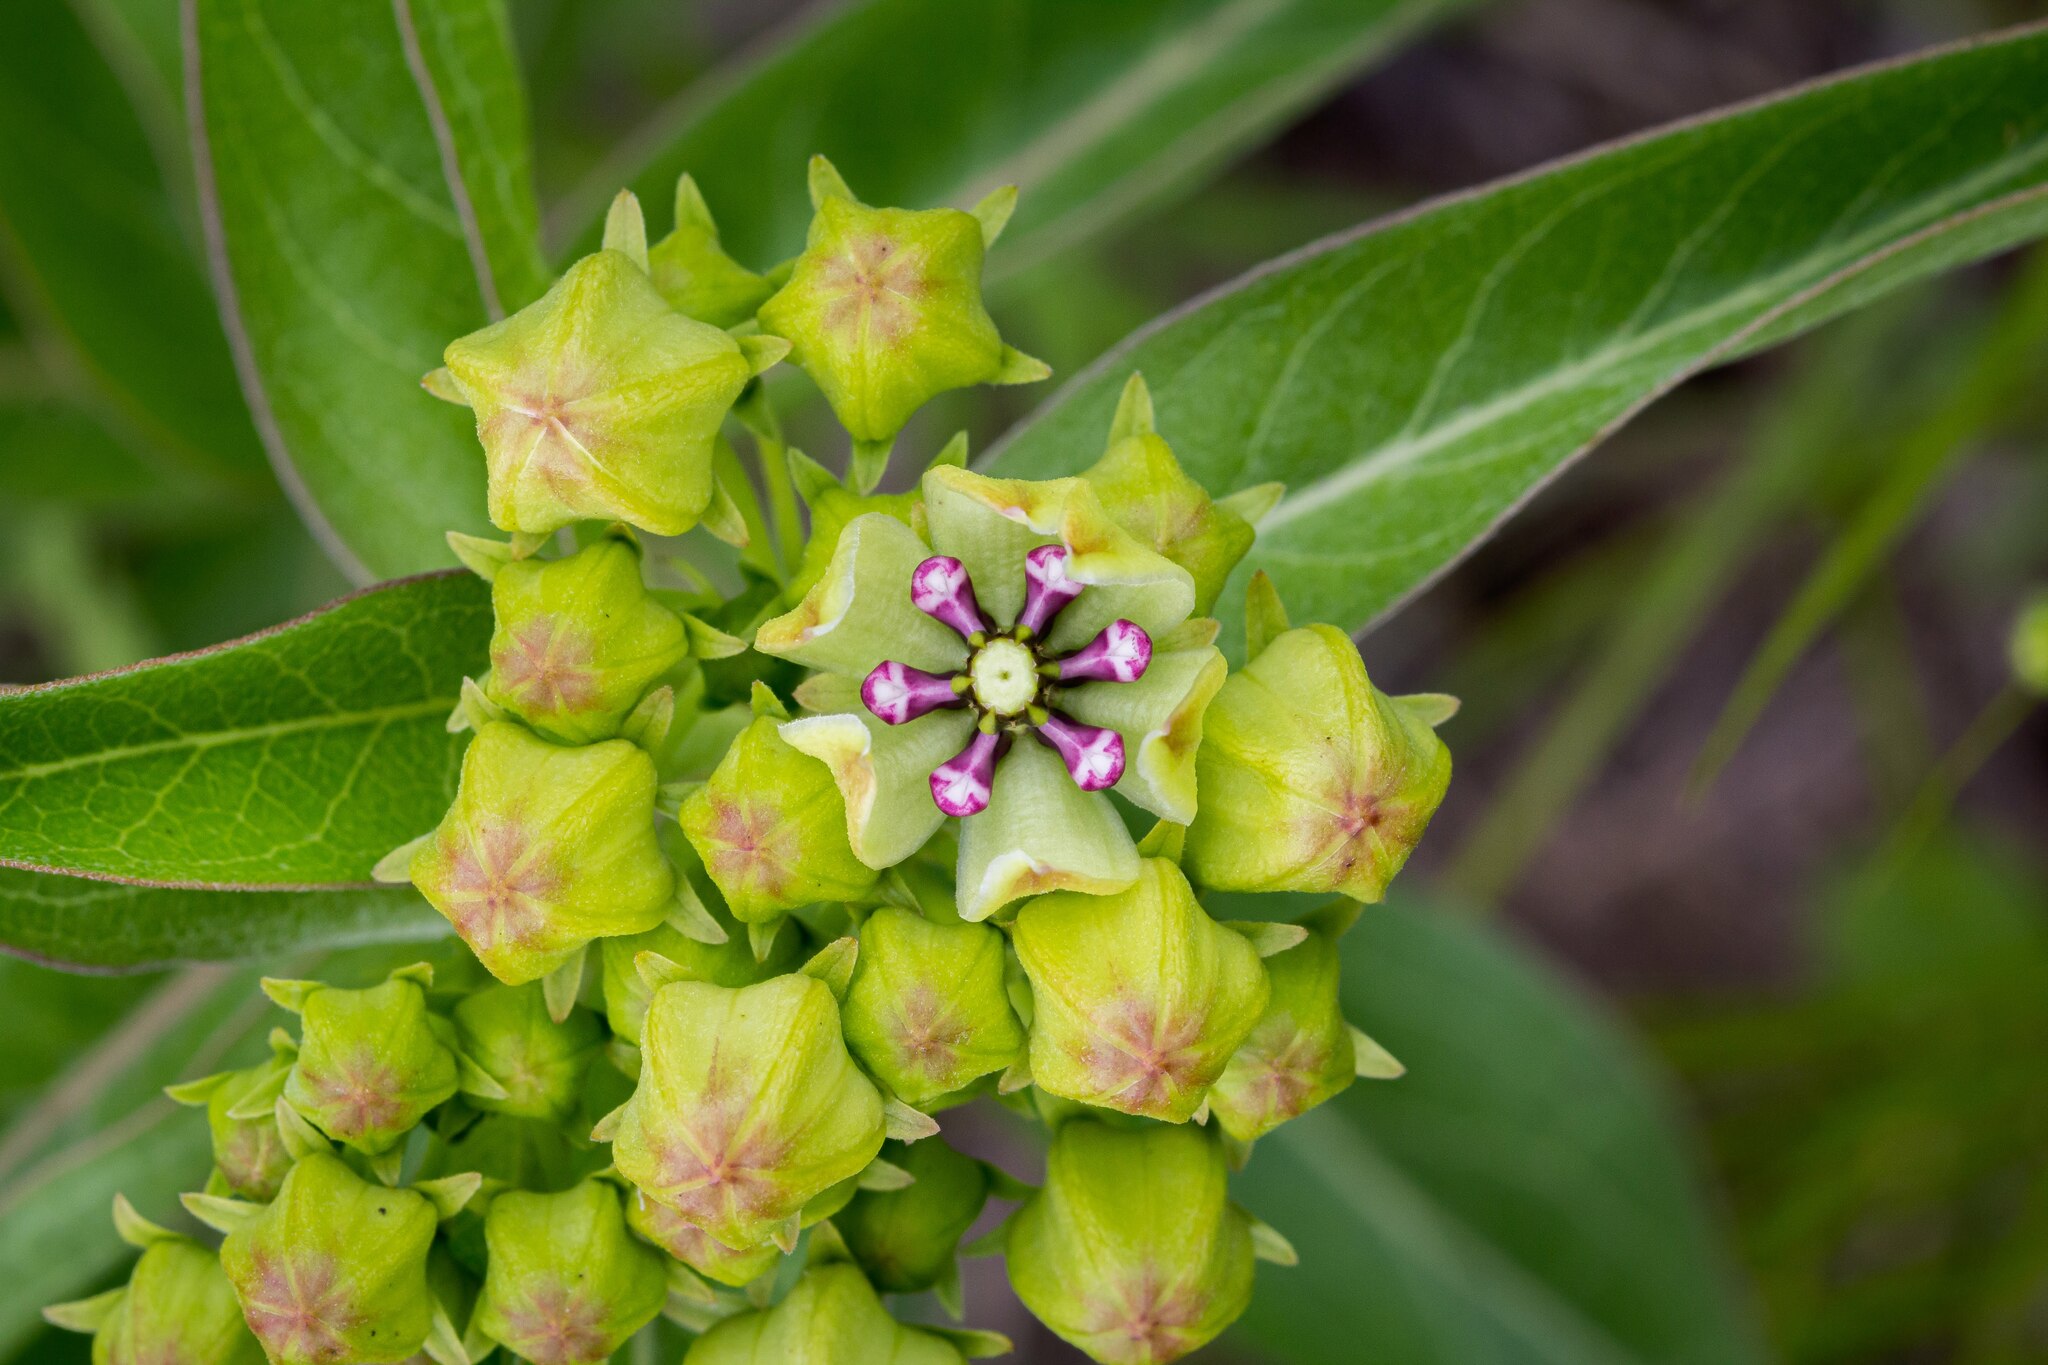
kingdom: Plantae
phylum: Tracheophyta
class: Magnoliopsida
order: Gentianales
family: Apocynaceae
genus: Asclepias
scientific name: Asclepias viridis
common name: Antelope-horns
